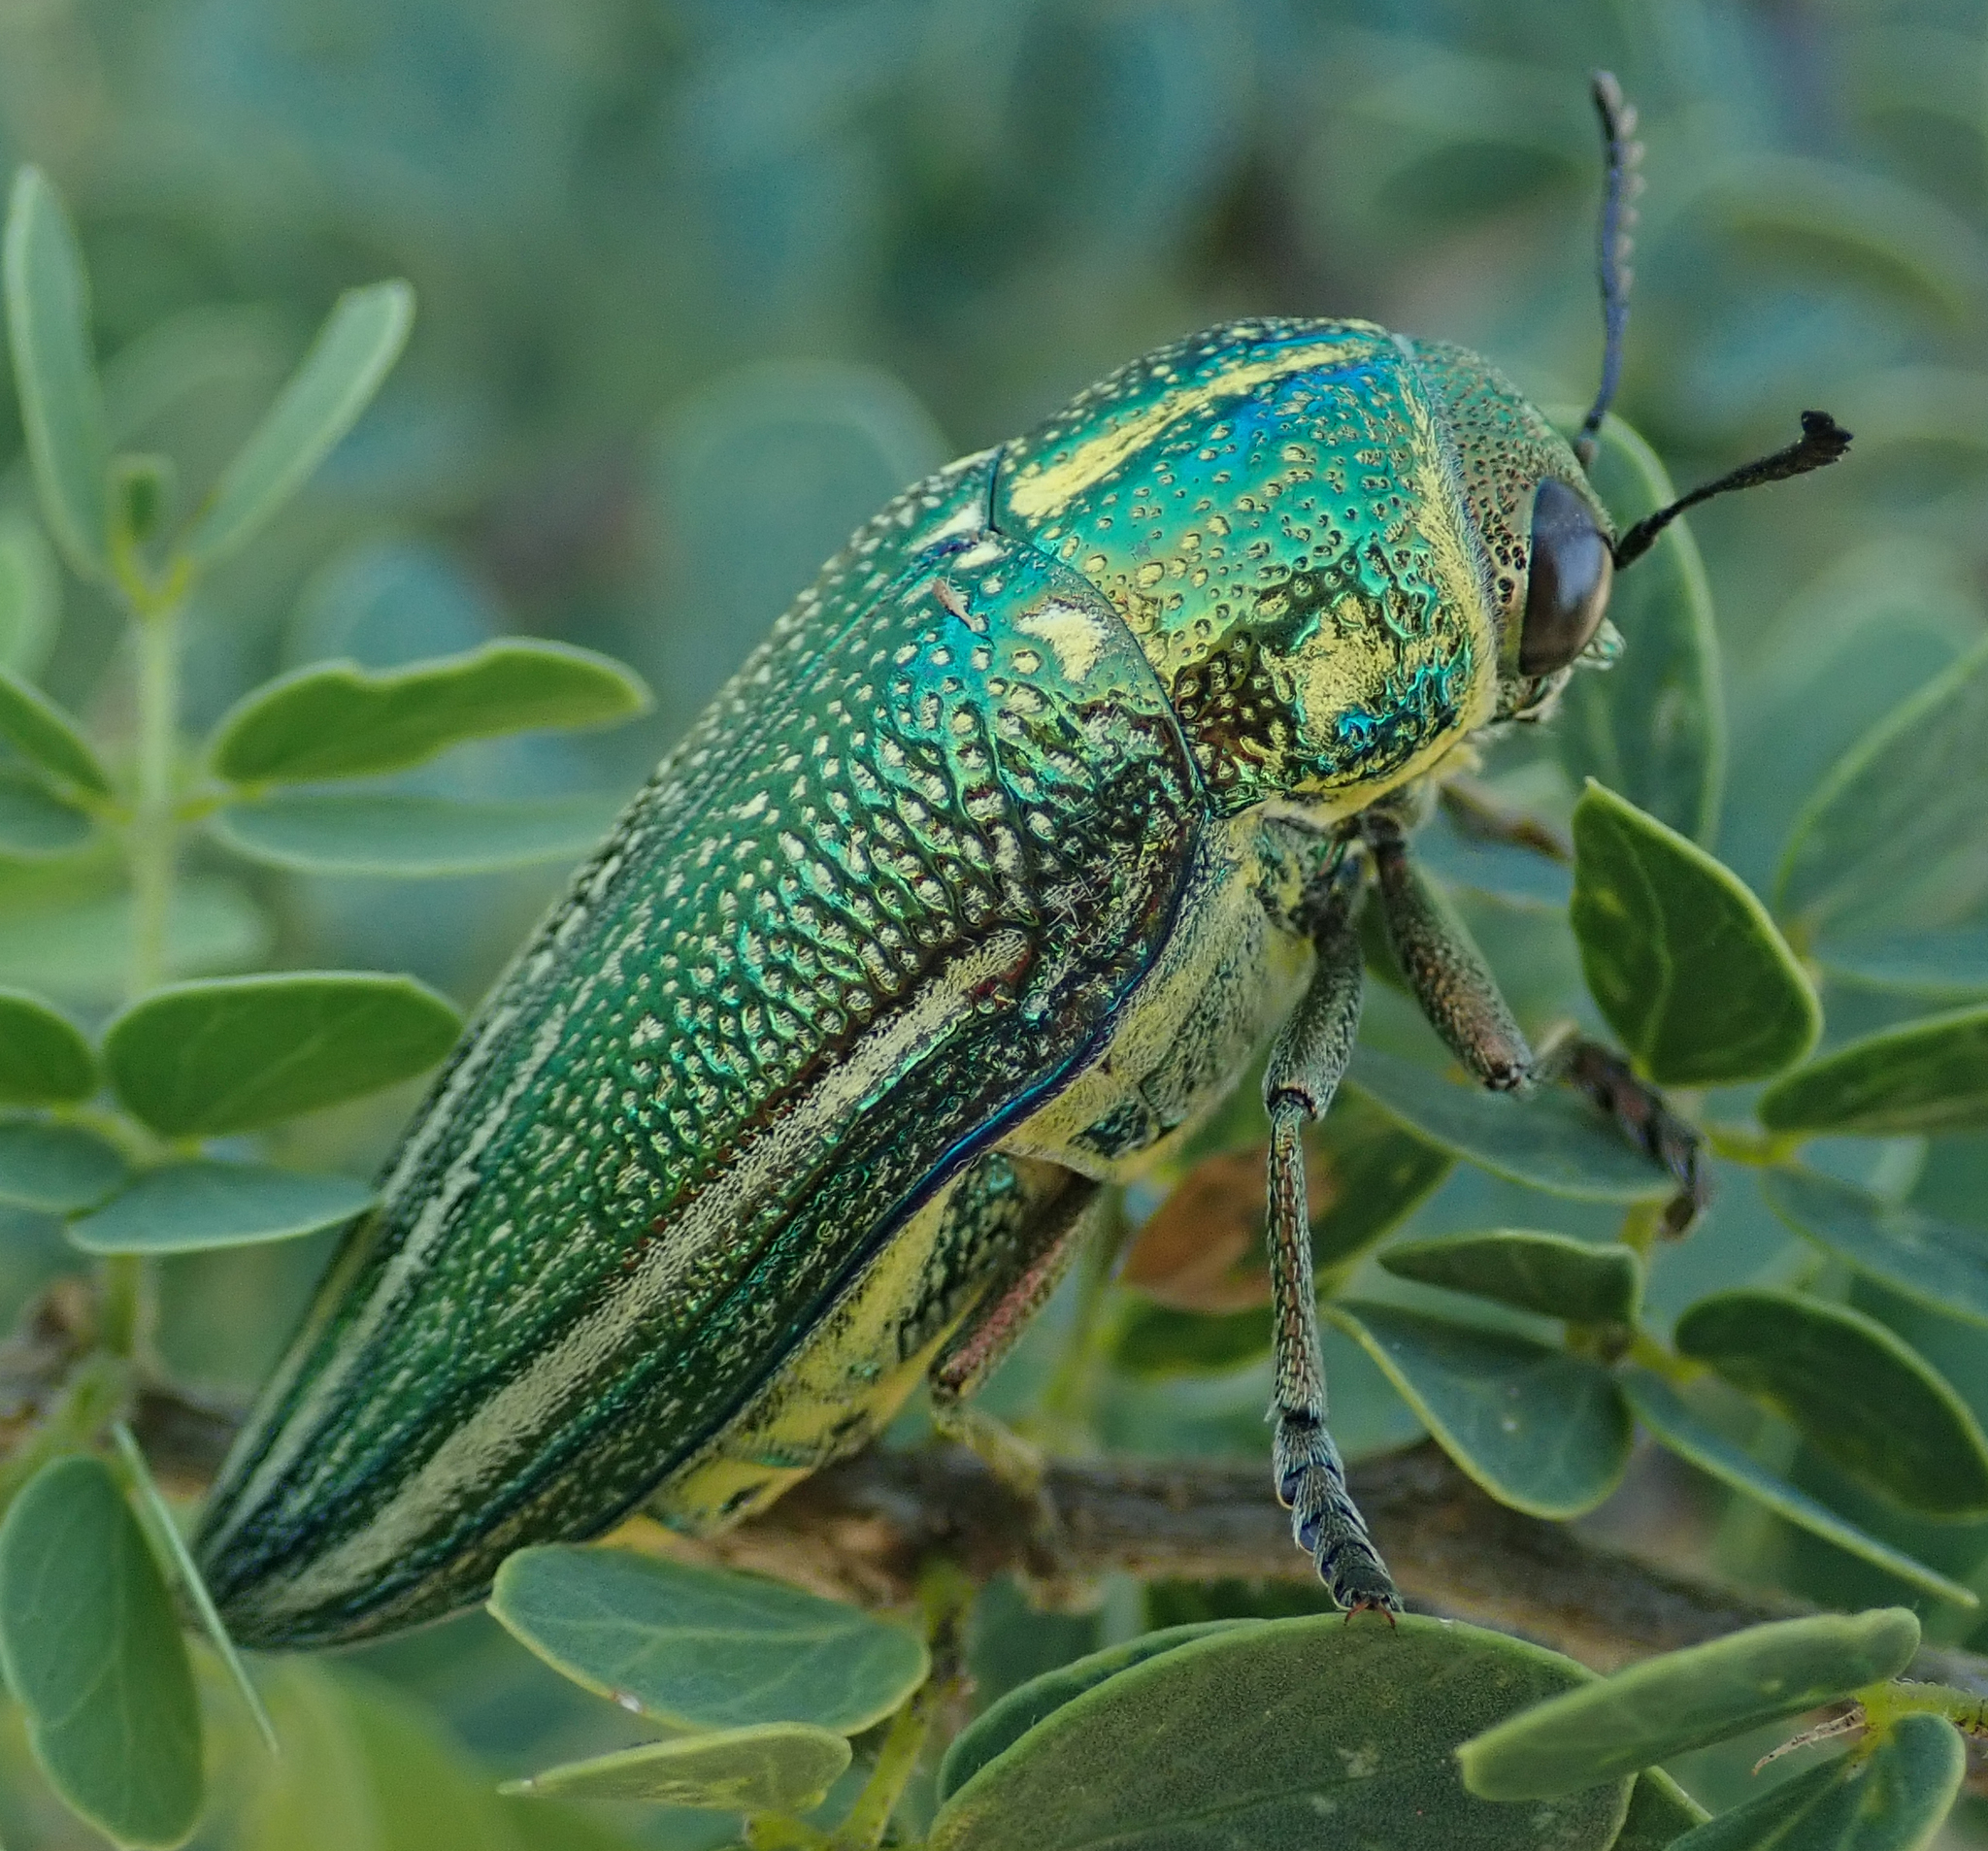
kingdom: Animalia
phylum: Arthropoda
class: Insecta
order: Coleoptera
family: Buprestidae
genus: Amblysterna
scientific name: Amblysterna natalensis
